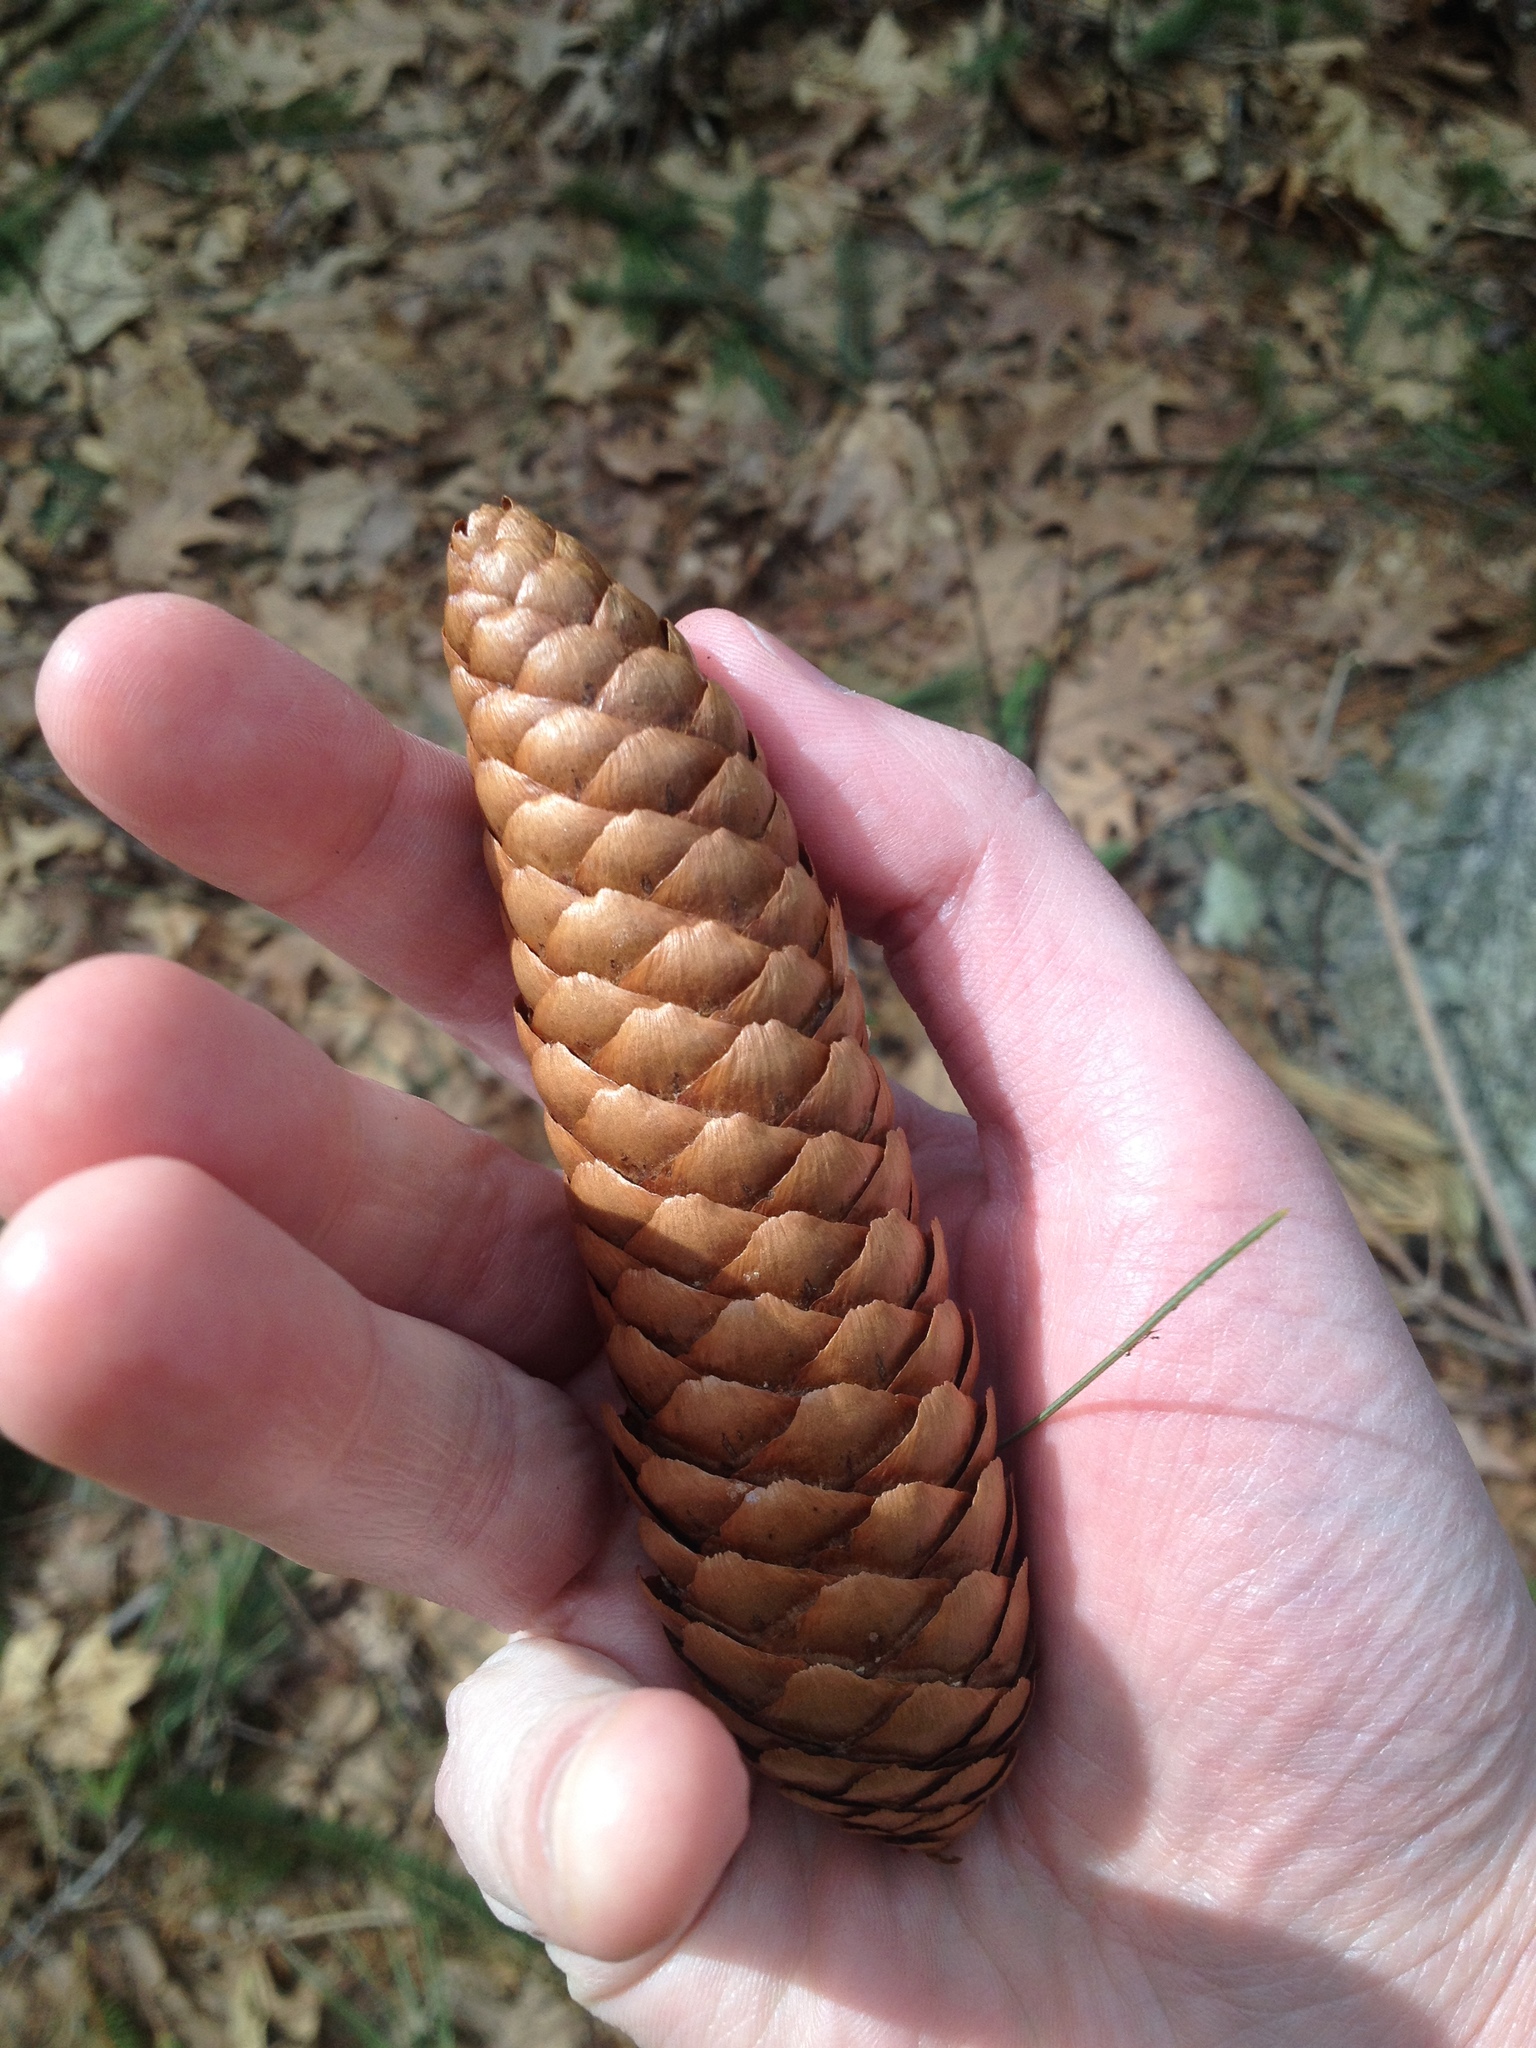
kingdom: Plantae
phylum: Tracheophyta
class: Pinopsida
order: Pinales
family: Pinaceae
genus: Picea
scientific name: Picea abies
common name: Norway spruce
